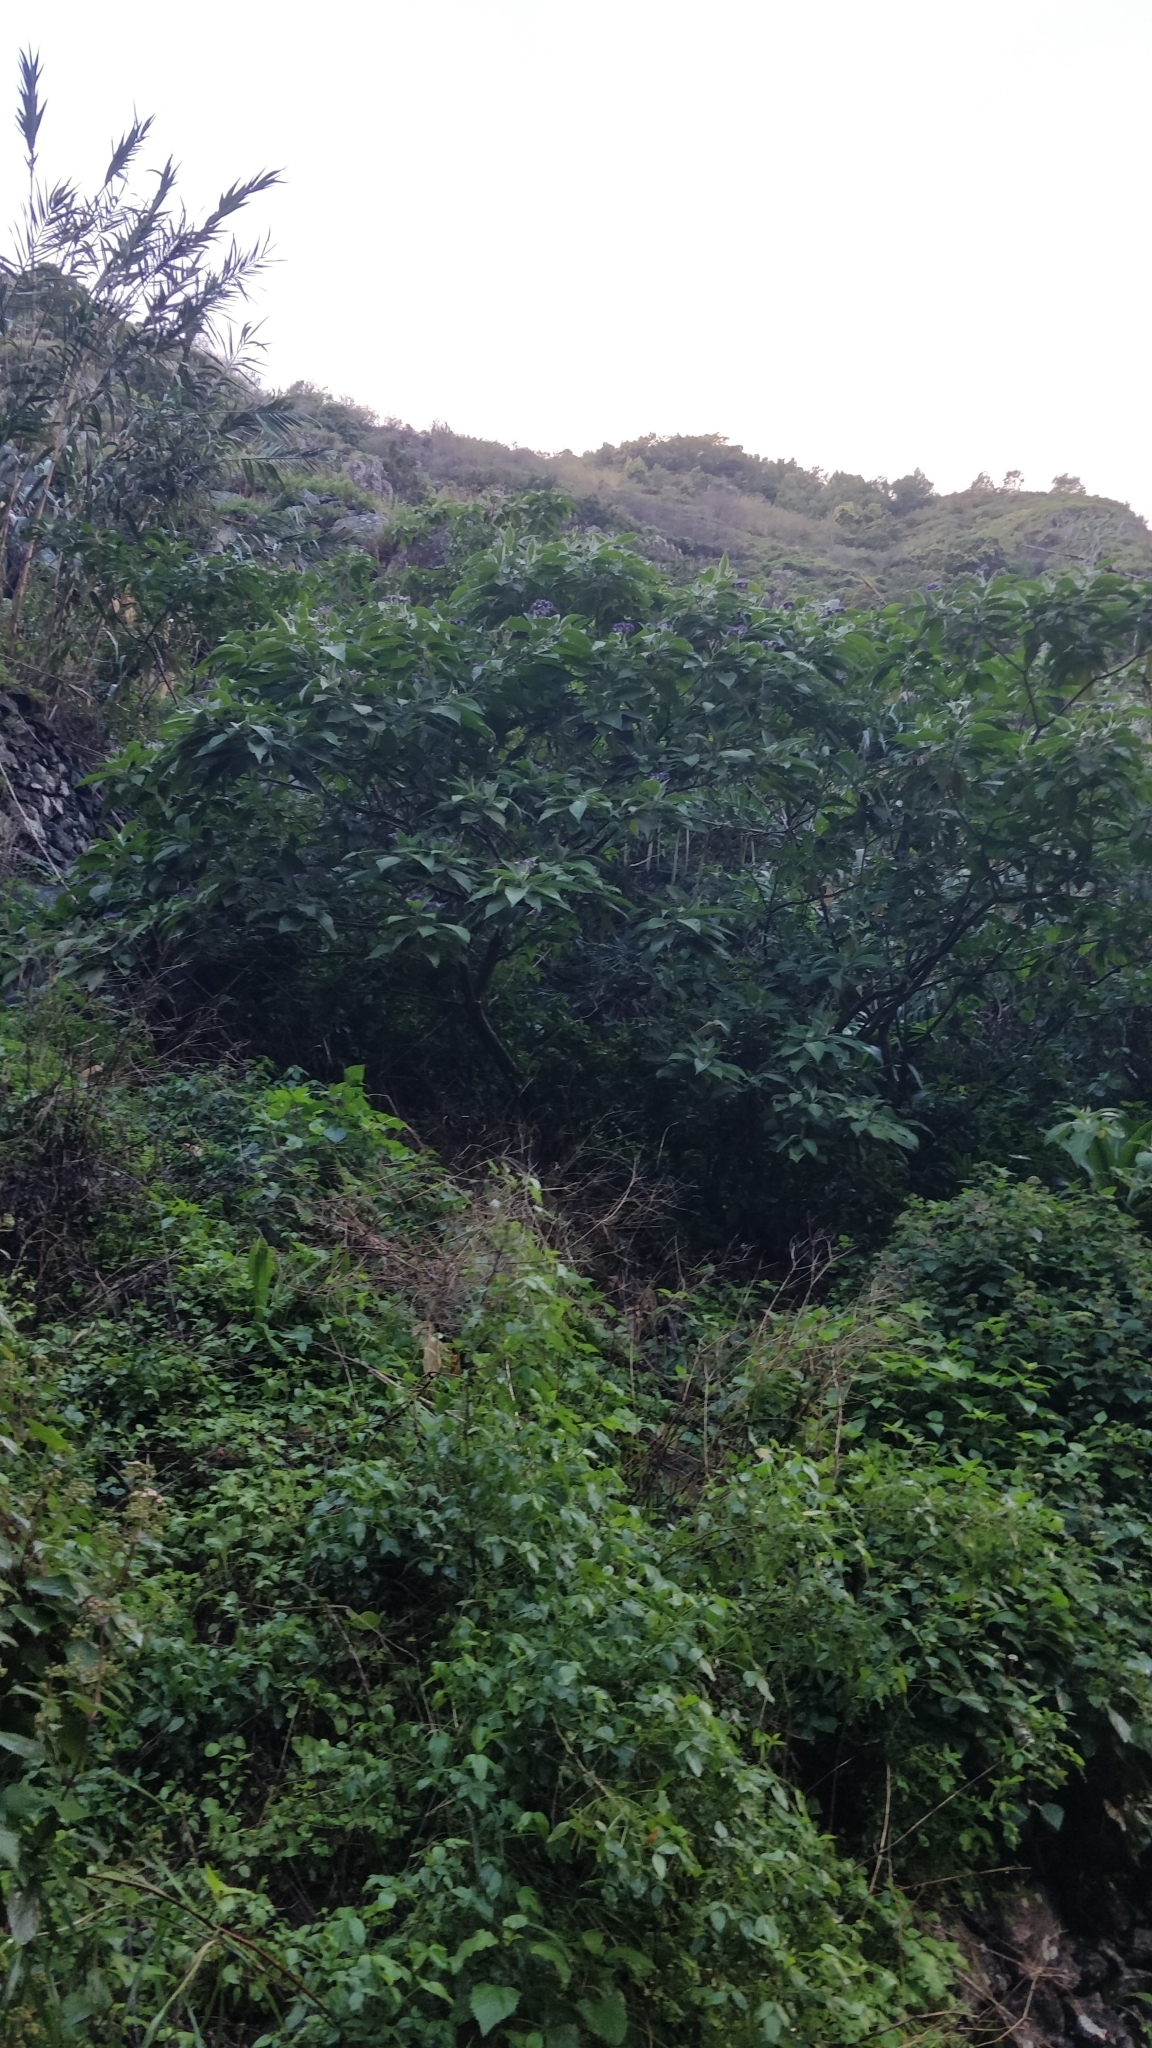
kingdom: Plantae
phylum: Tracheophyta
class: Magnoliopsida
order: Solanales
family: Solanaceae
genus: Solanum
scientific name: Solanum mauritianum
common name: Earleaf nightshade
